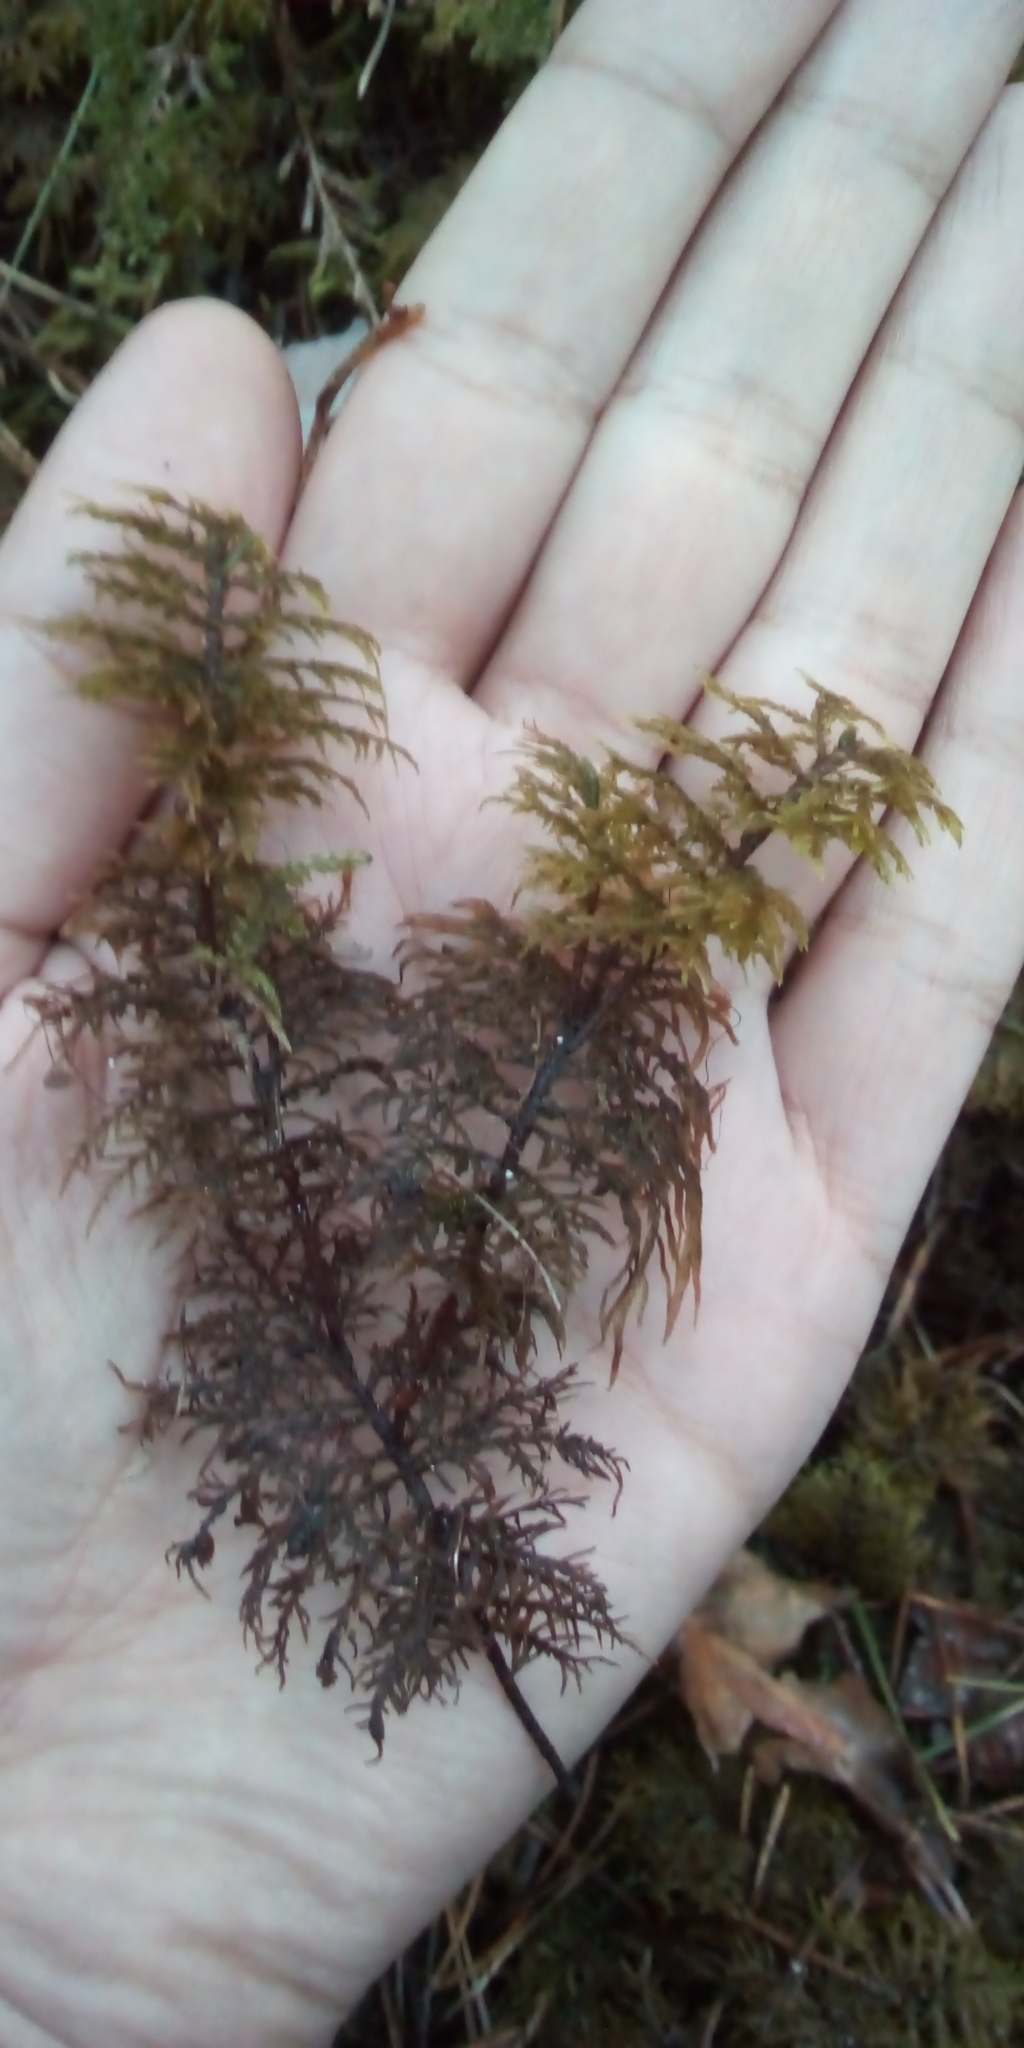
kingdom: Plantae
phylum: Bryophyta
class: Bryopsida
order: Hypnales
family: Hylocomiaceae
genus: Hylocomium
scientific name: Hylocomium splendens
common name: Stairstep moss
